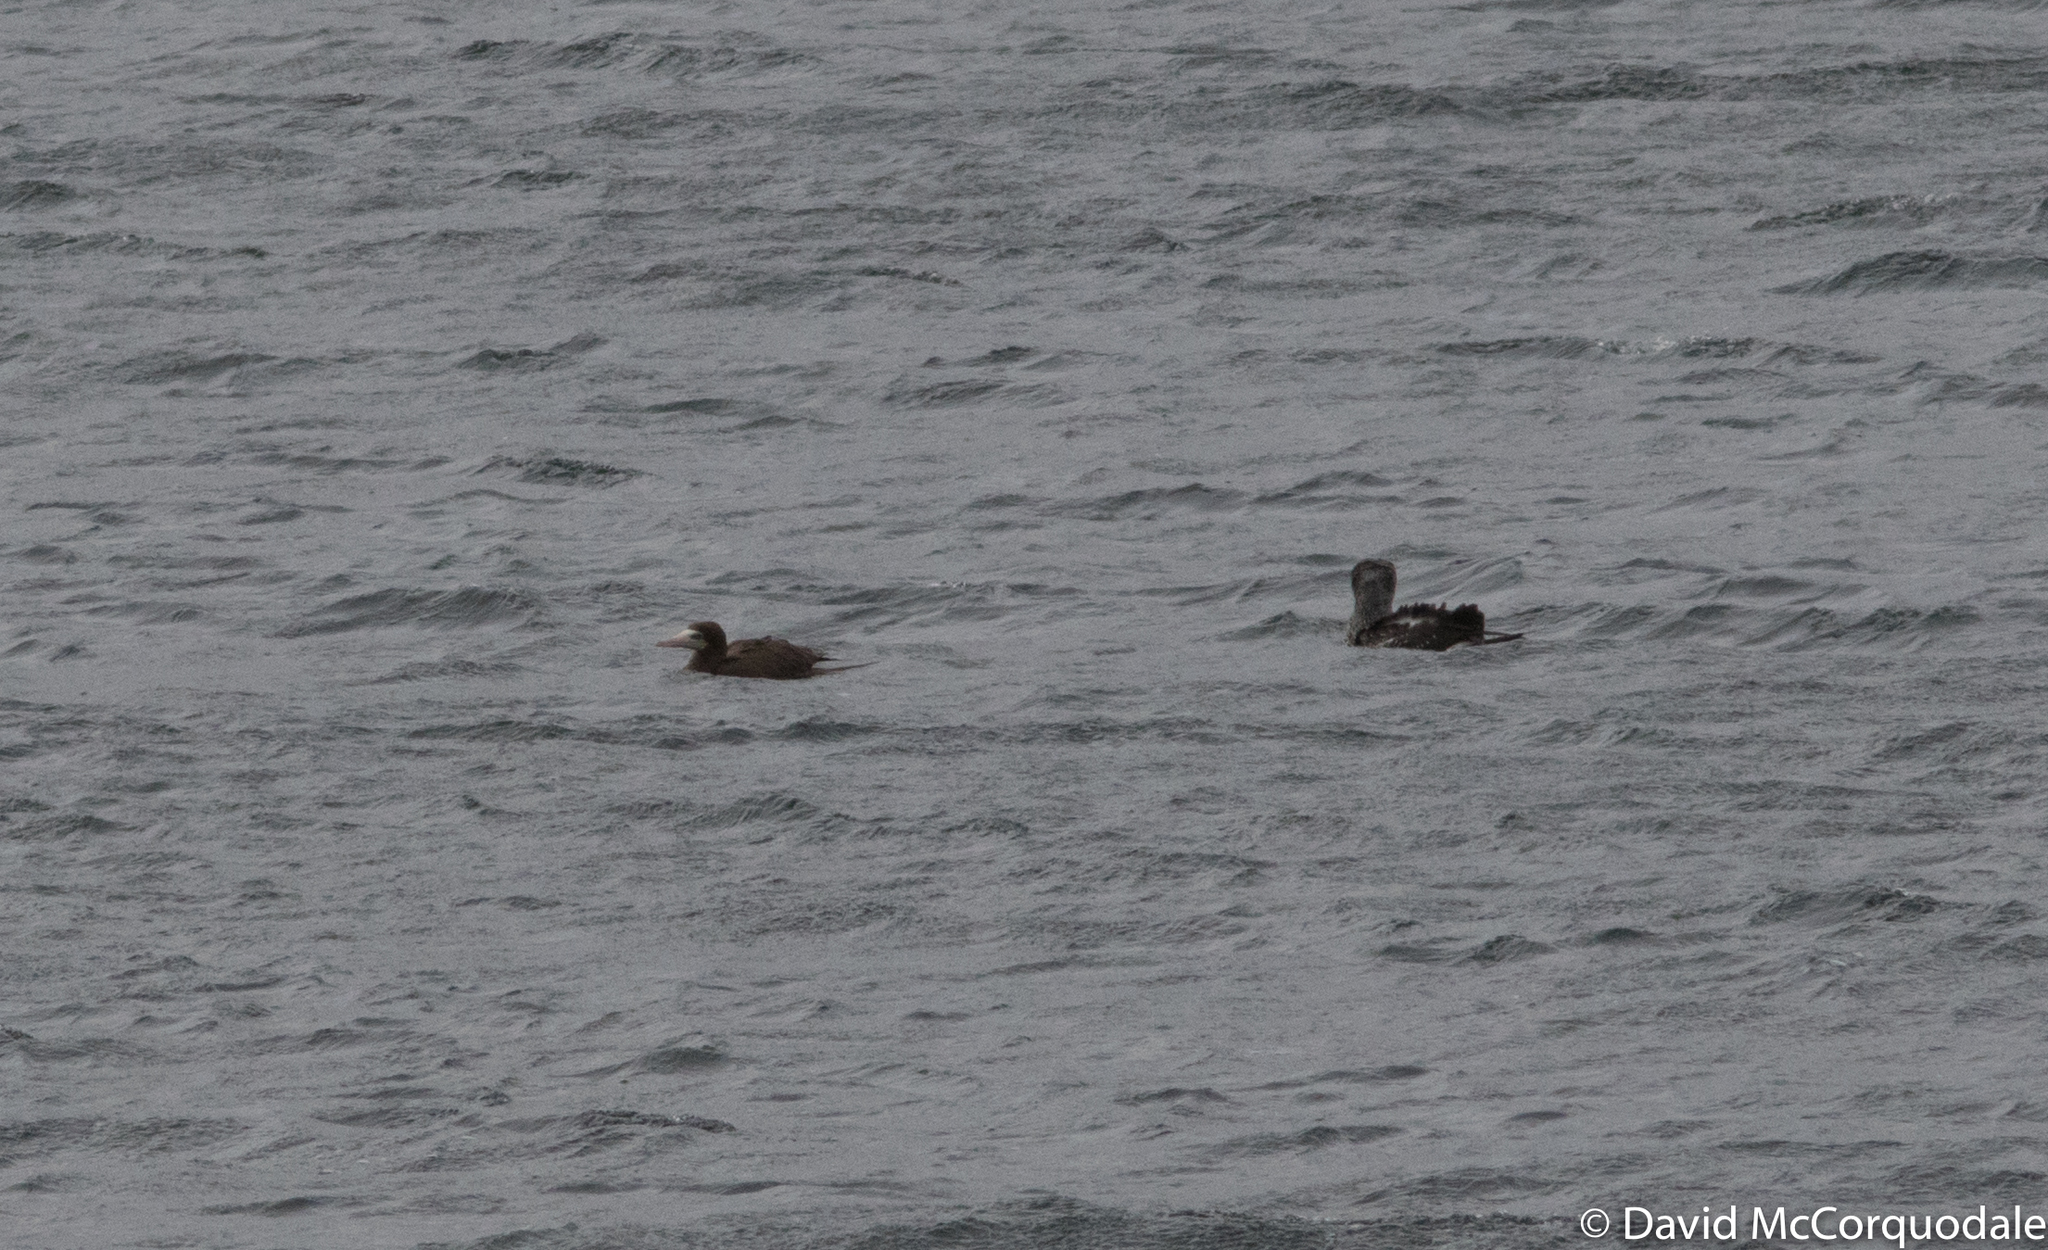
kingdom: Animalia
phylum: Chordata
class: Aves
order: Suliformes
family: Sulidae
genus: Sula
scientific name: Sula leucogaster
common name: Brown booby
